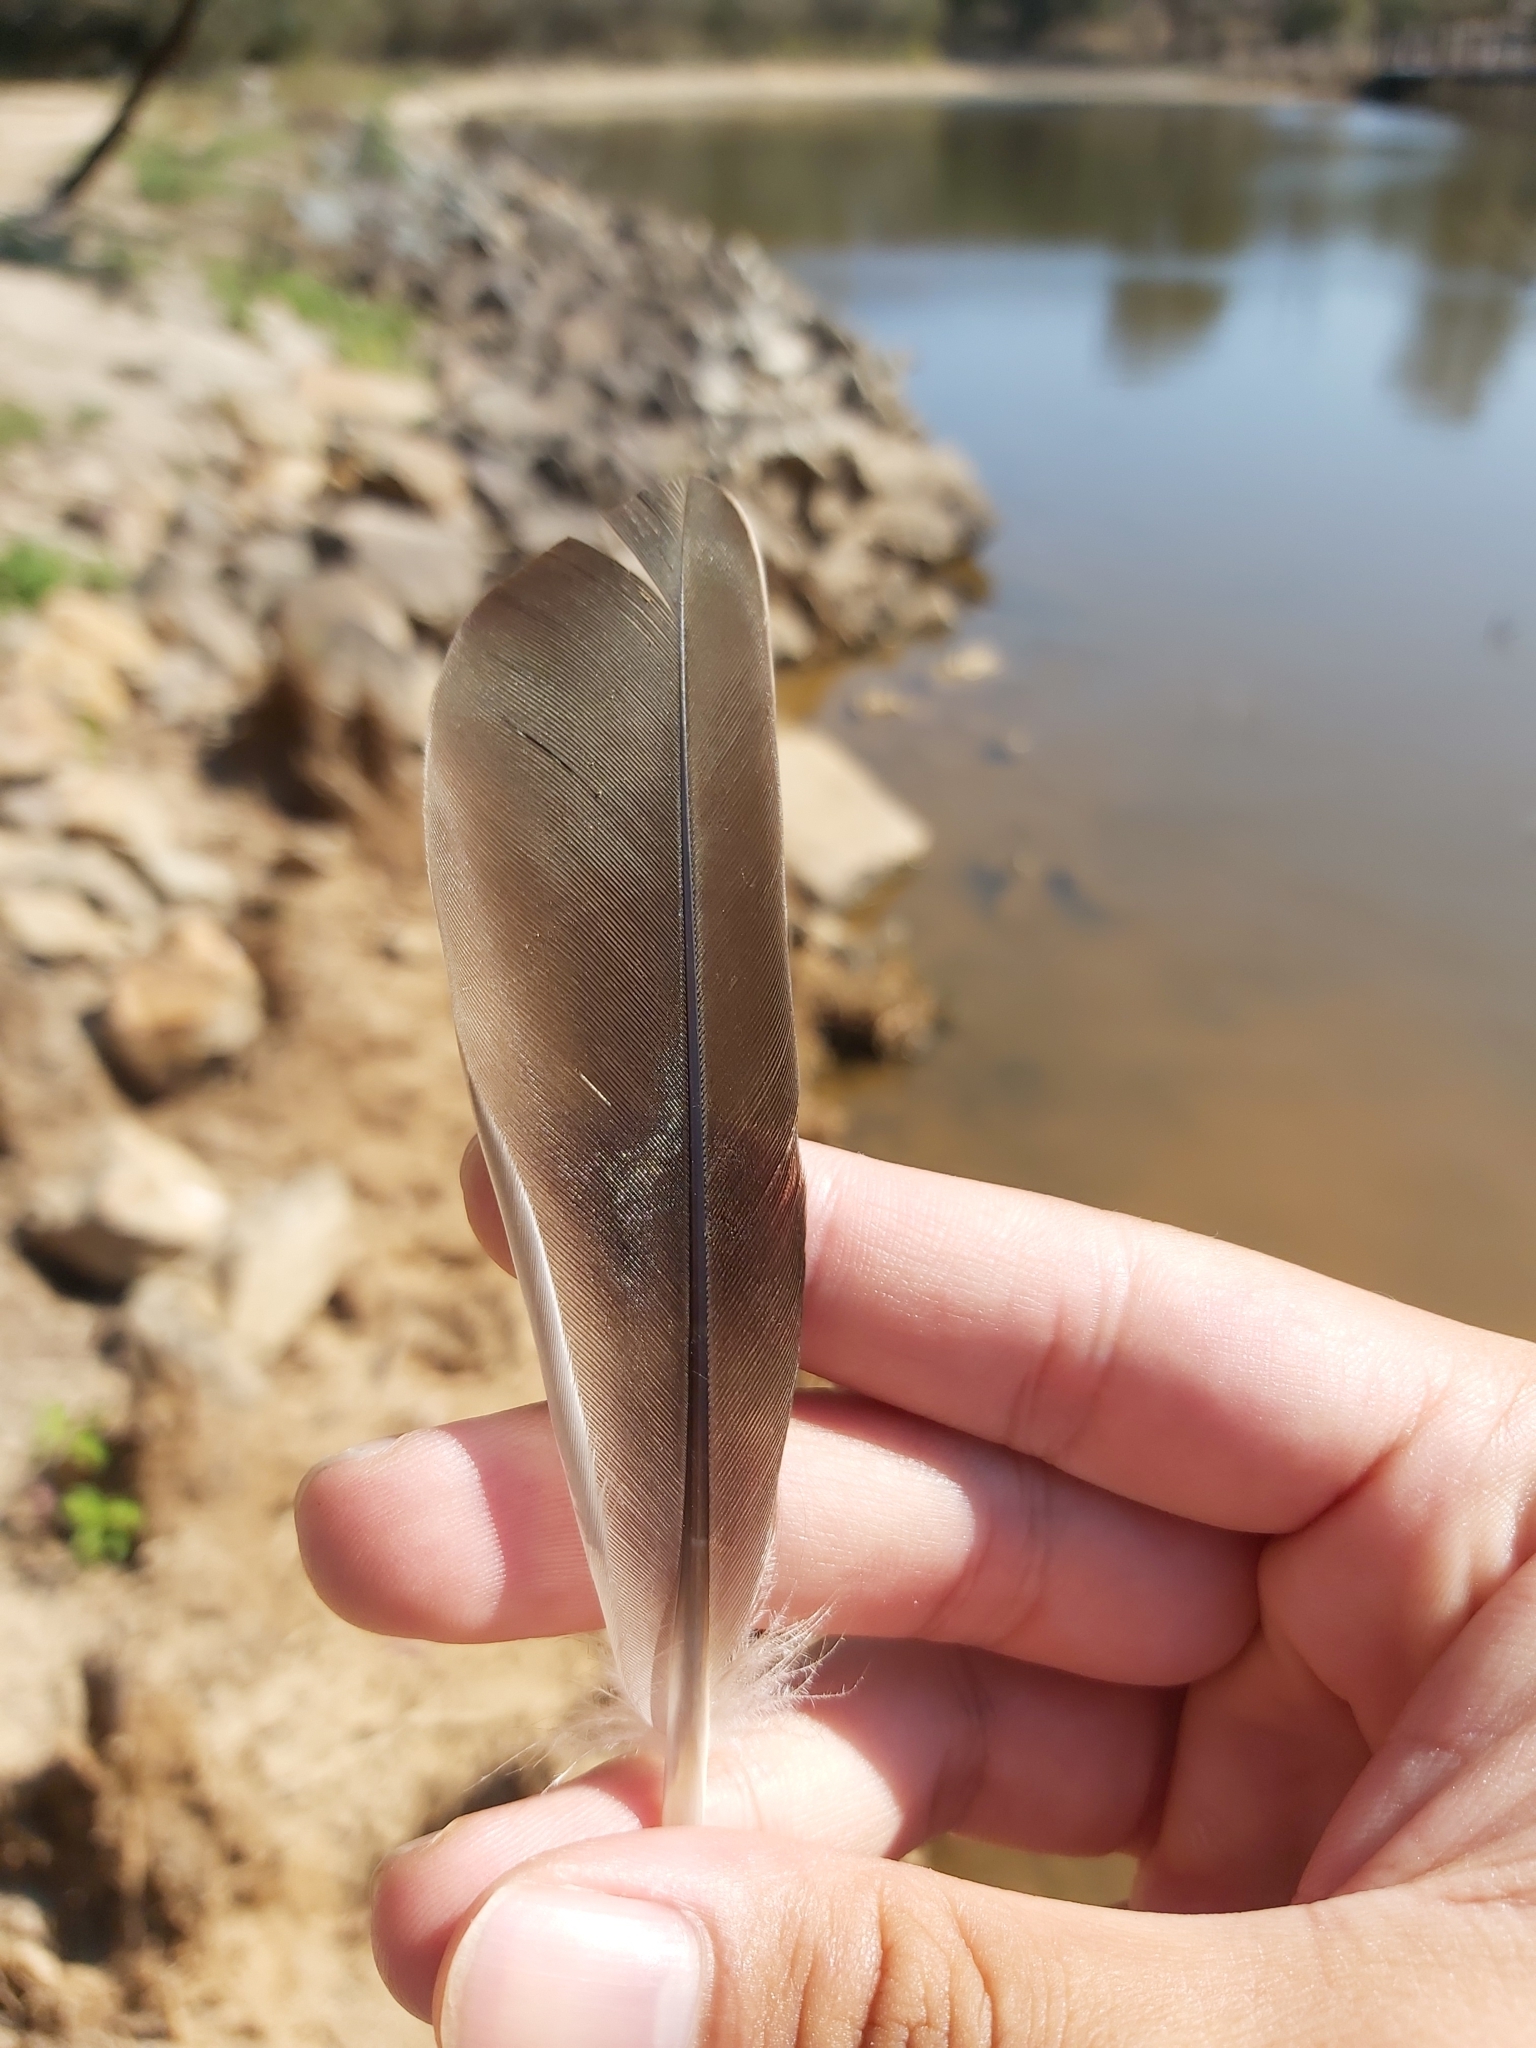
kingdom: Animalia
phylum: Chordata
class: Aves
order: Anseriformes
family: Anatidae
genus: Anas
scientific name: Anas superciliosa
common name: Pacific black duck
